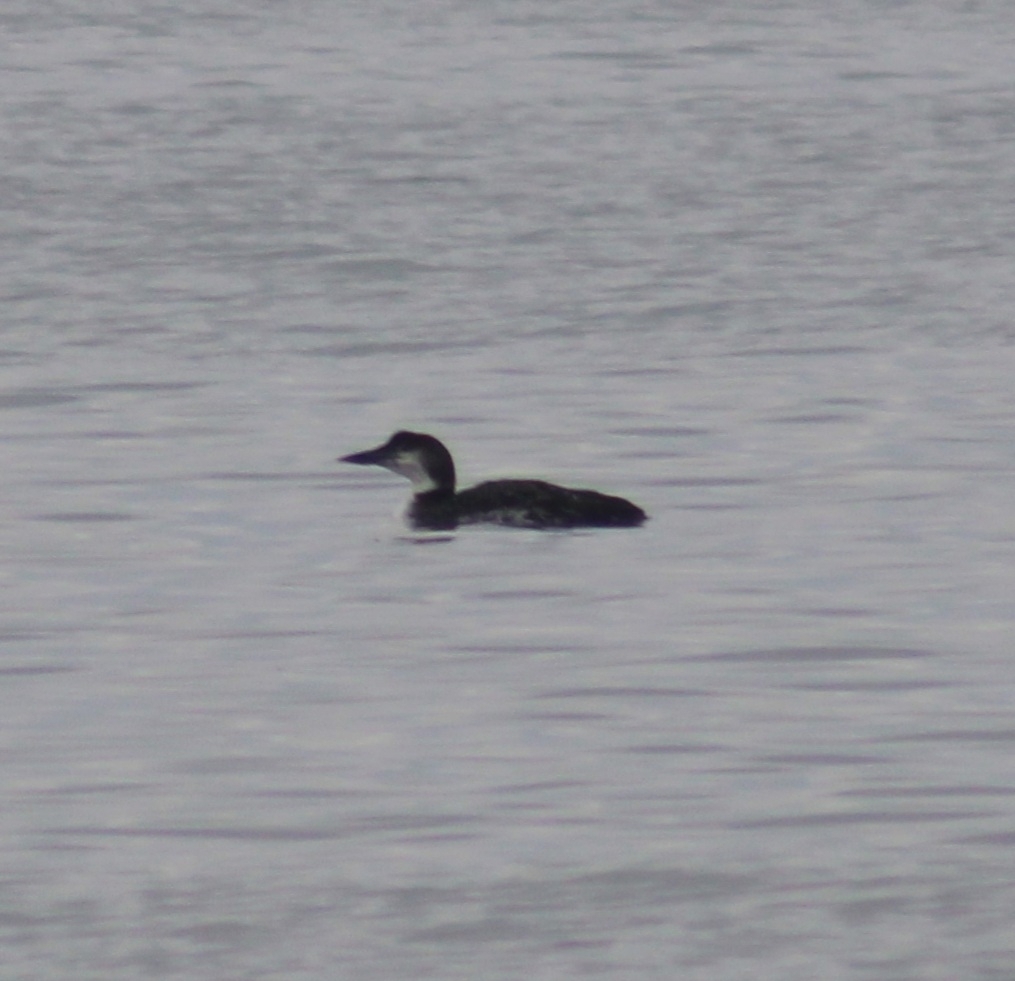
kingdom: Animalia
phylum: Chordata
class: Aves
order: Gaviiformes
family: Gaviidae
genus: Gavia
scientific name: Gavia immer
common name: Common loon
